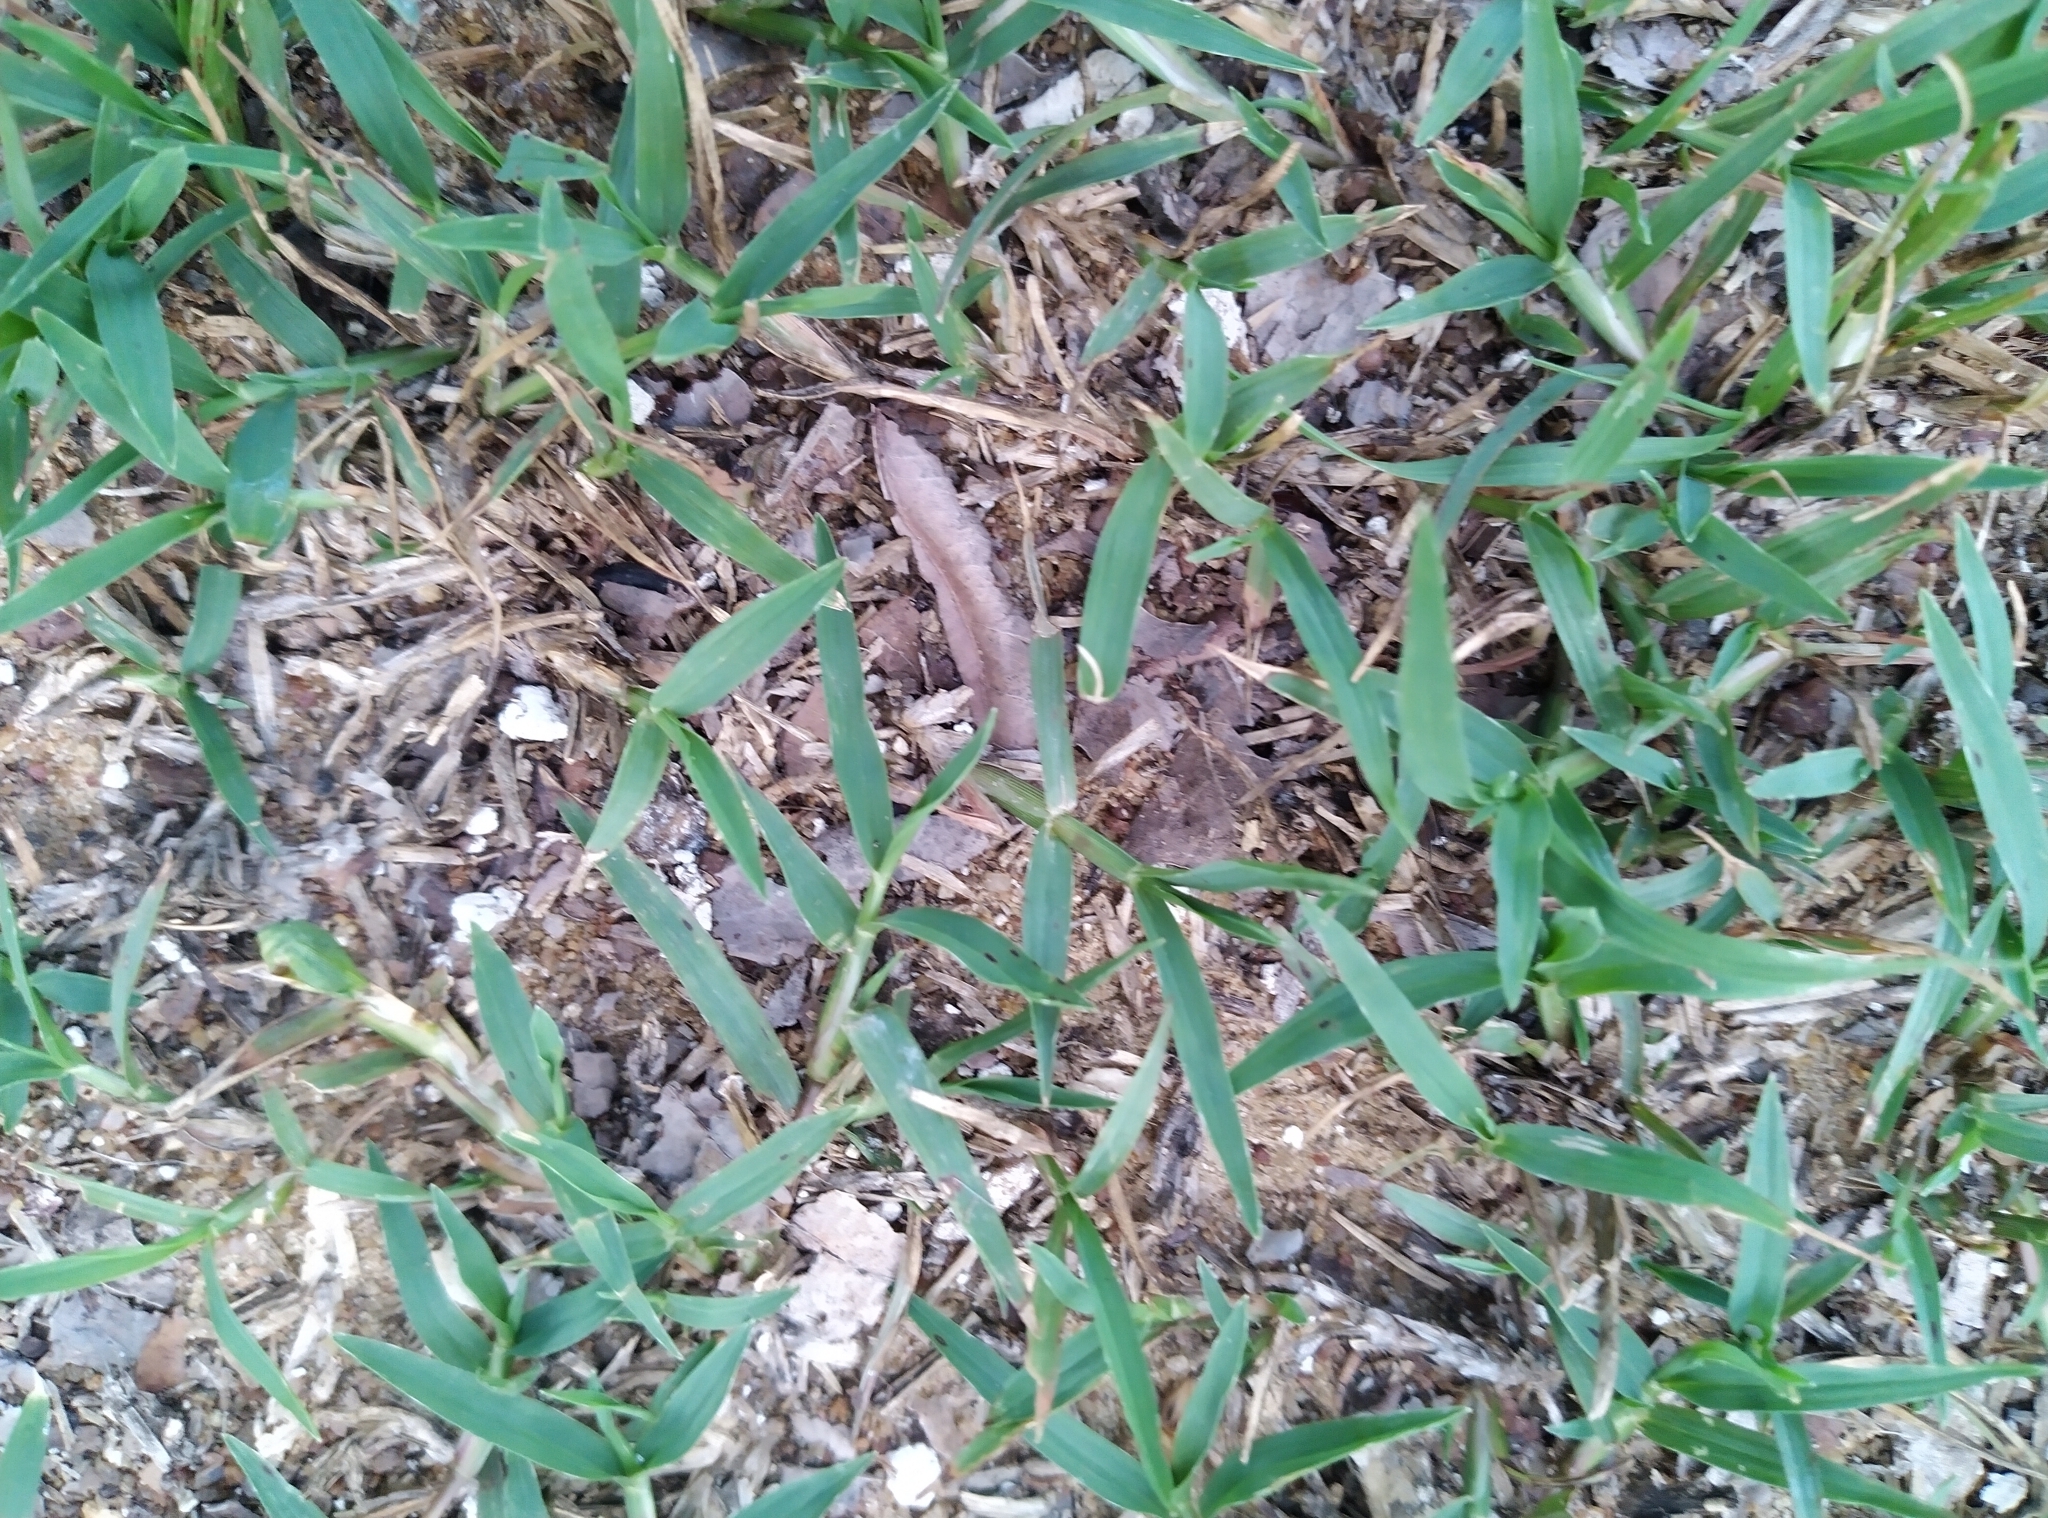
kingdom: Animalia
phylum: Arthropoda
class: Insecta
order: Hemiptera
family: Lygaeidae
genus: Aspilocoryphus
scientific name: Aspilocoryphus mendicus
